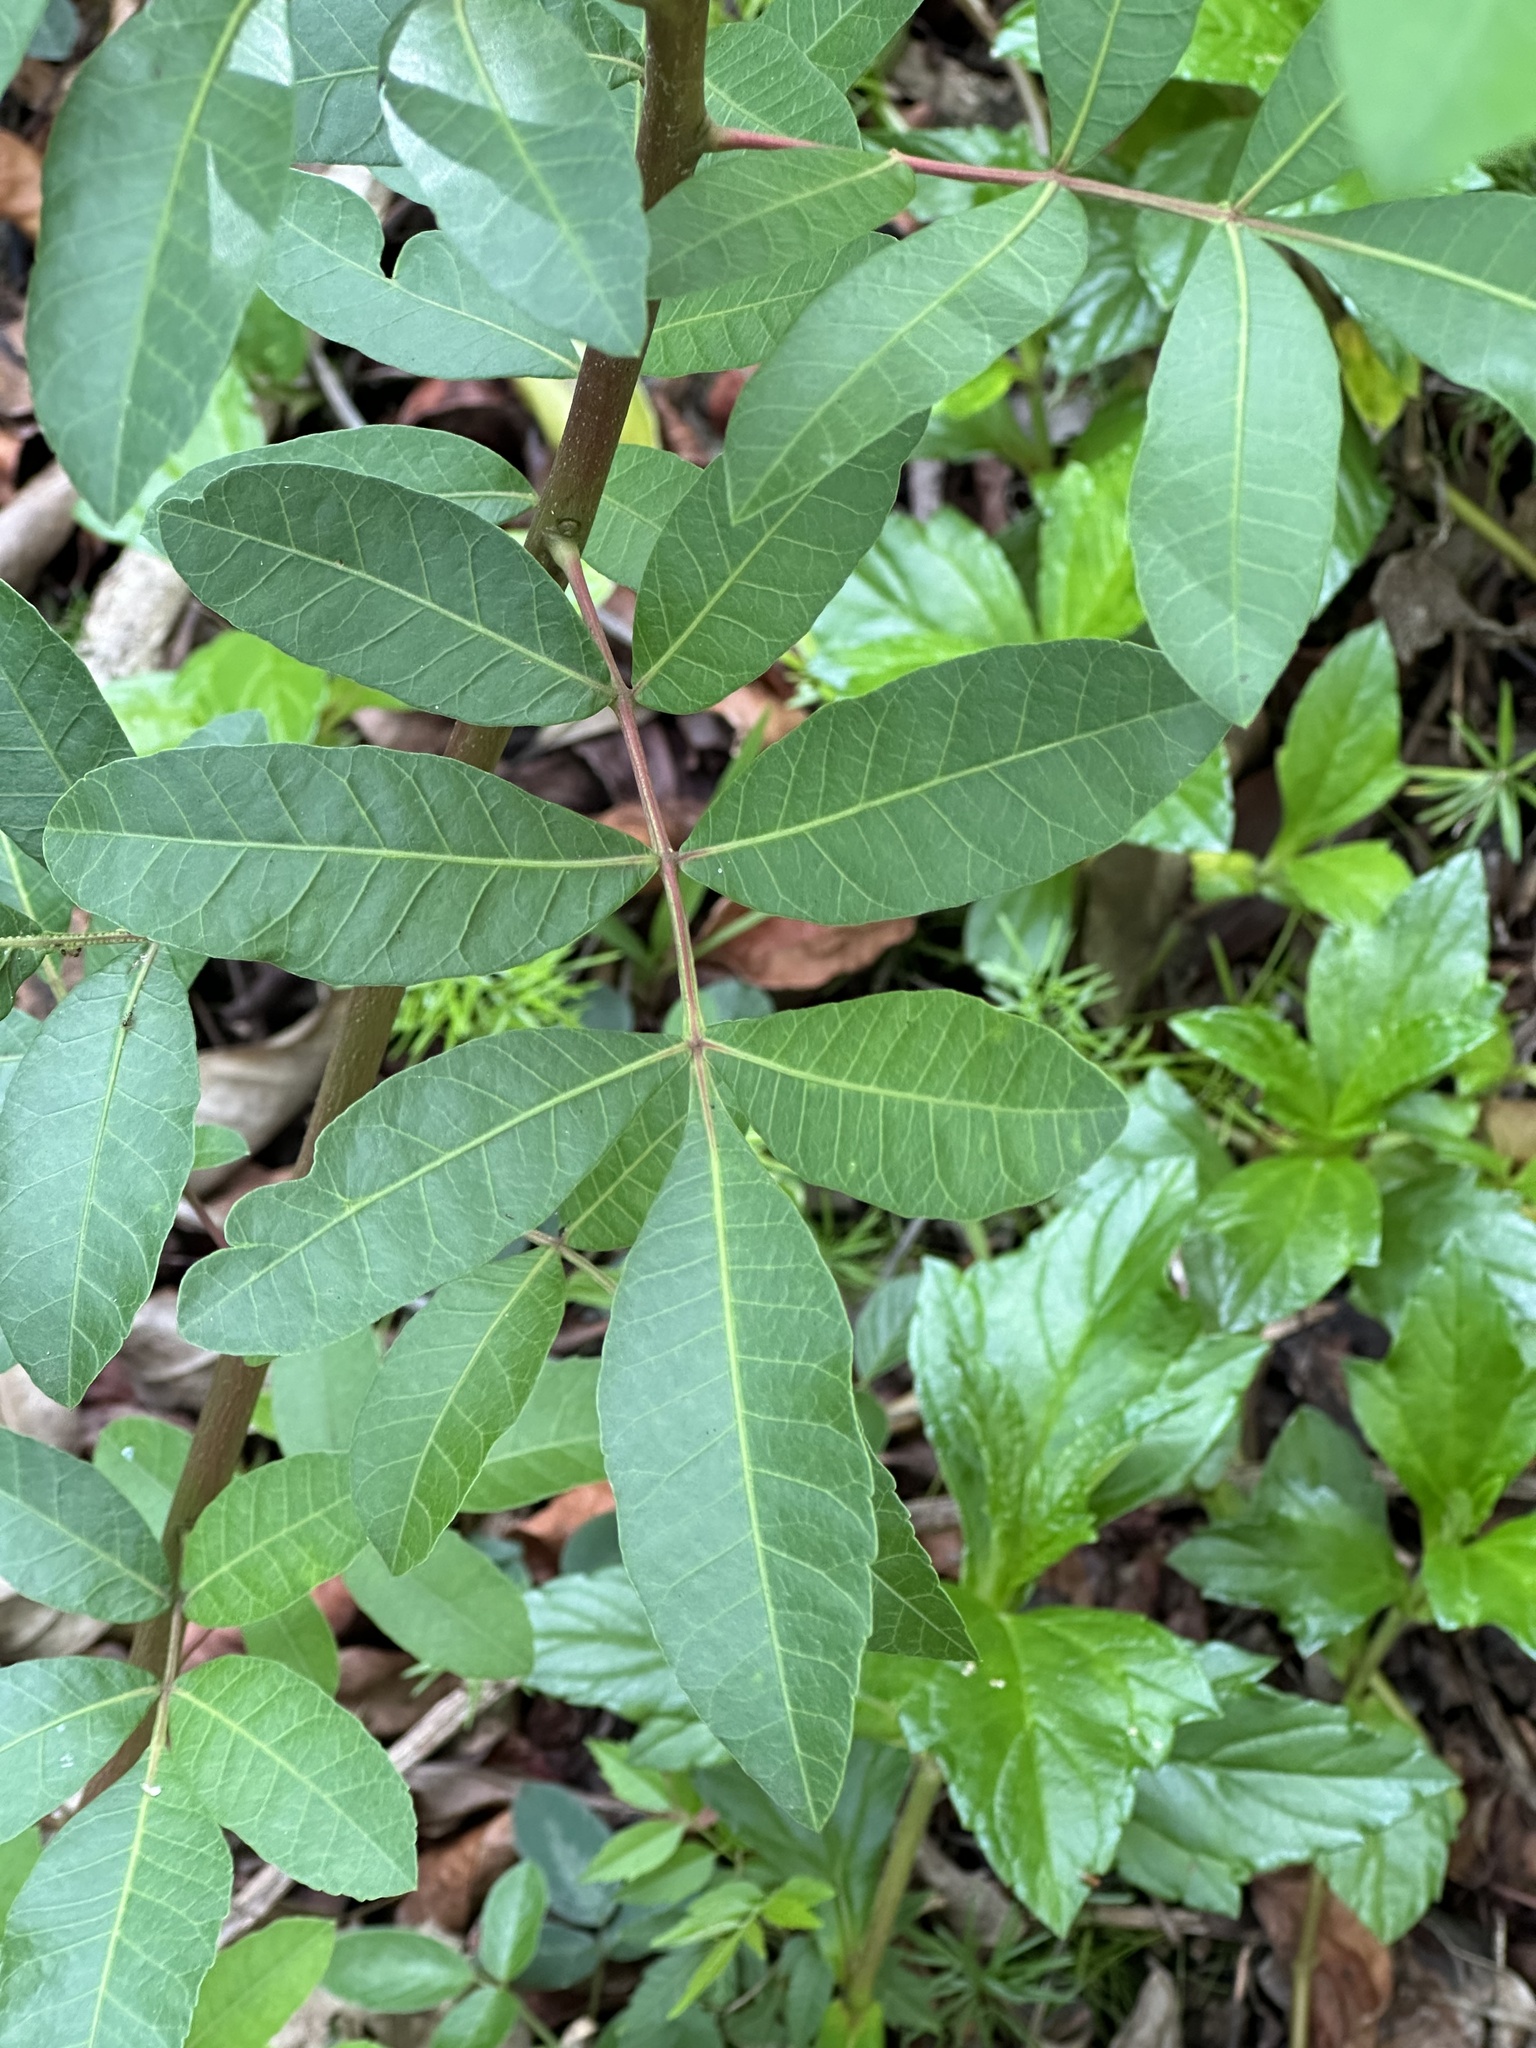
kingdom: Plantae
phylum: Tracheophyta
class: Magnoliopsida
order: Sapindales
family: Anacardiaceae
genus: Schinus
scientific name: Schinus terebinthifolia
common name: Brazilian peppertree
